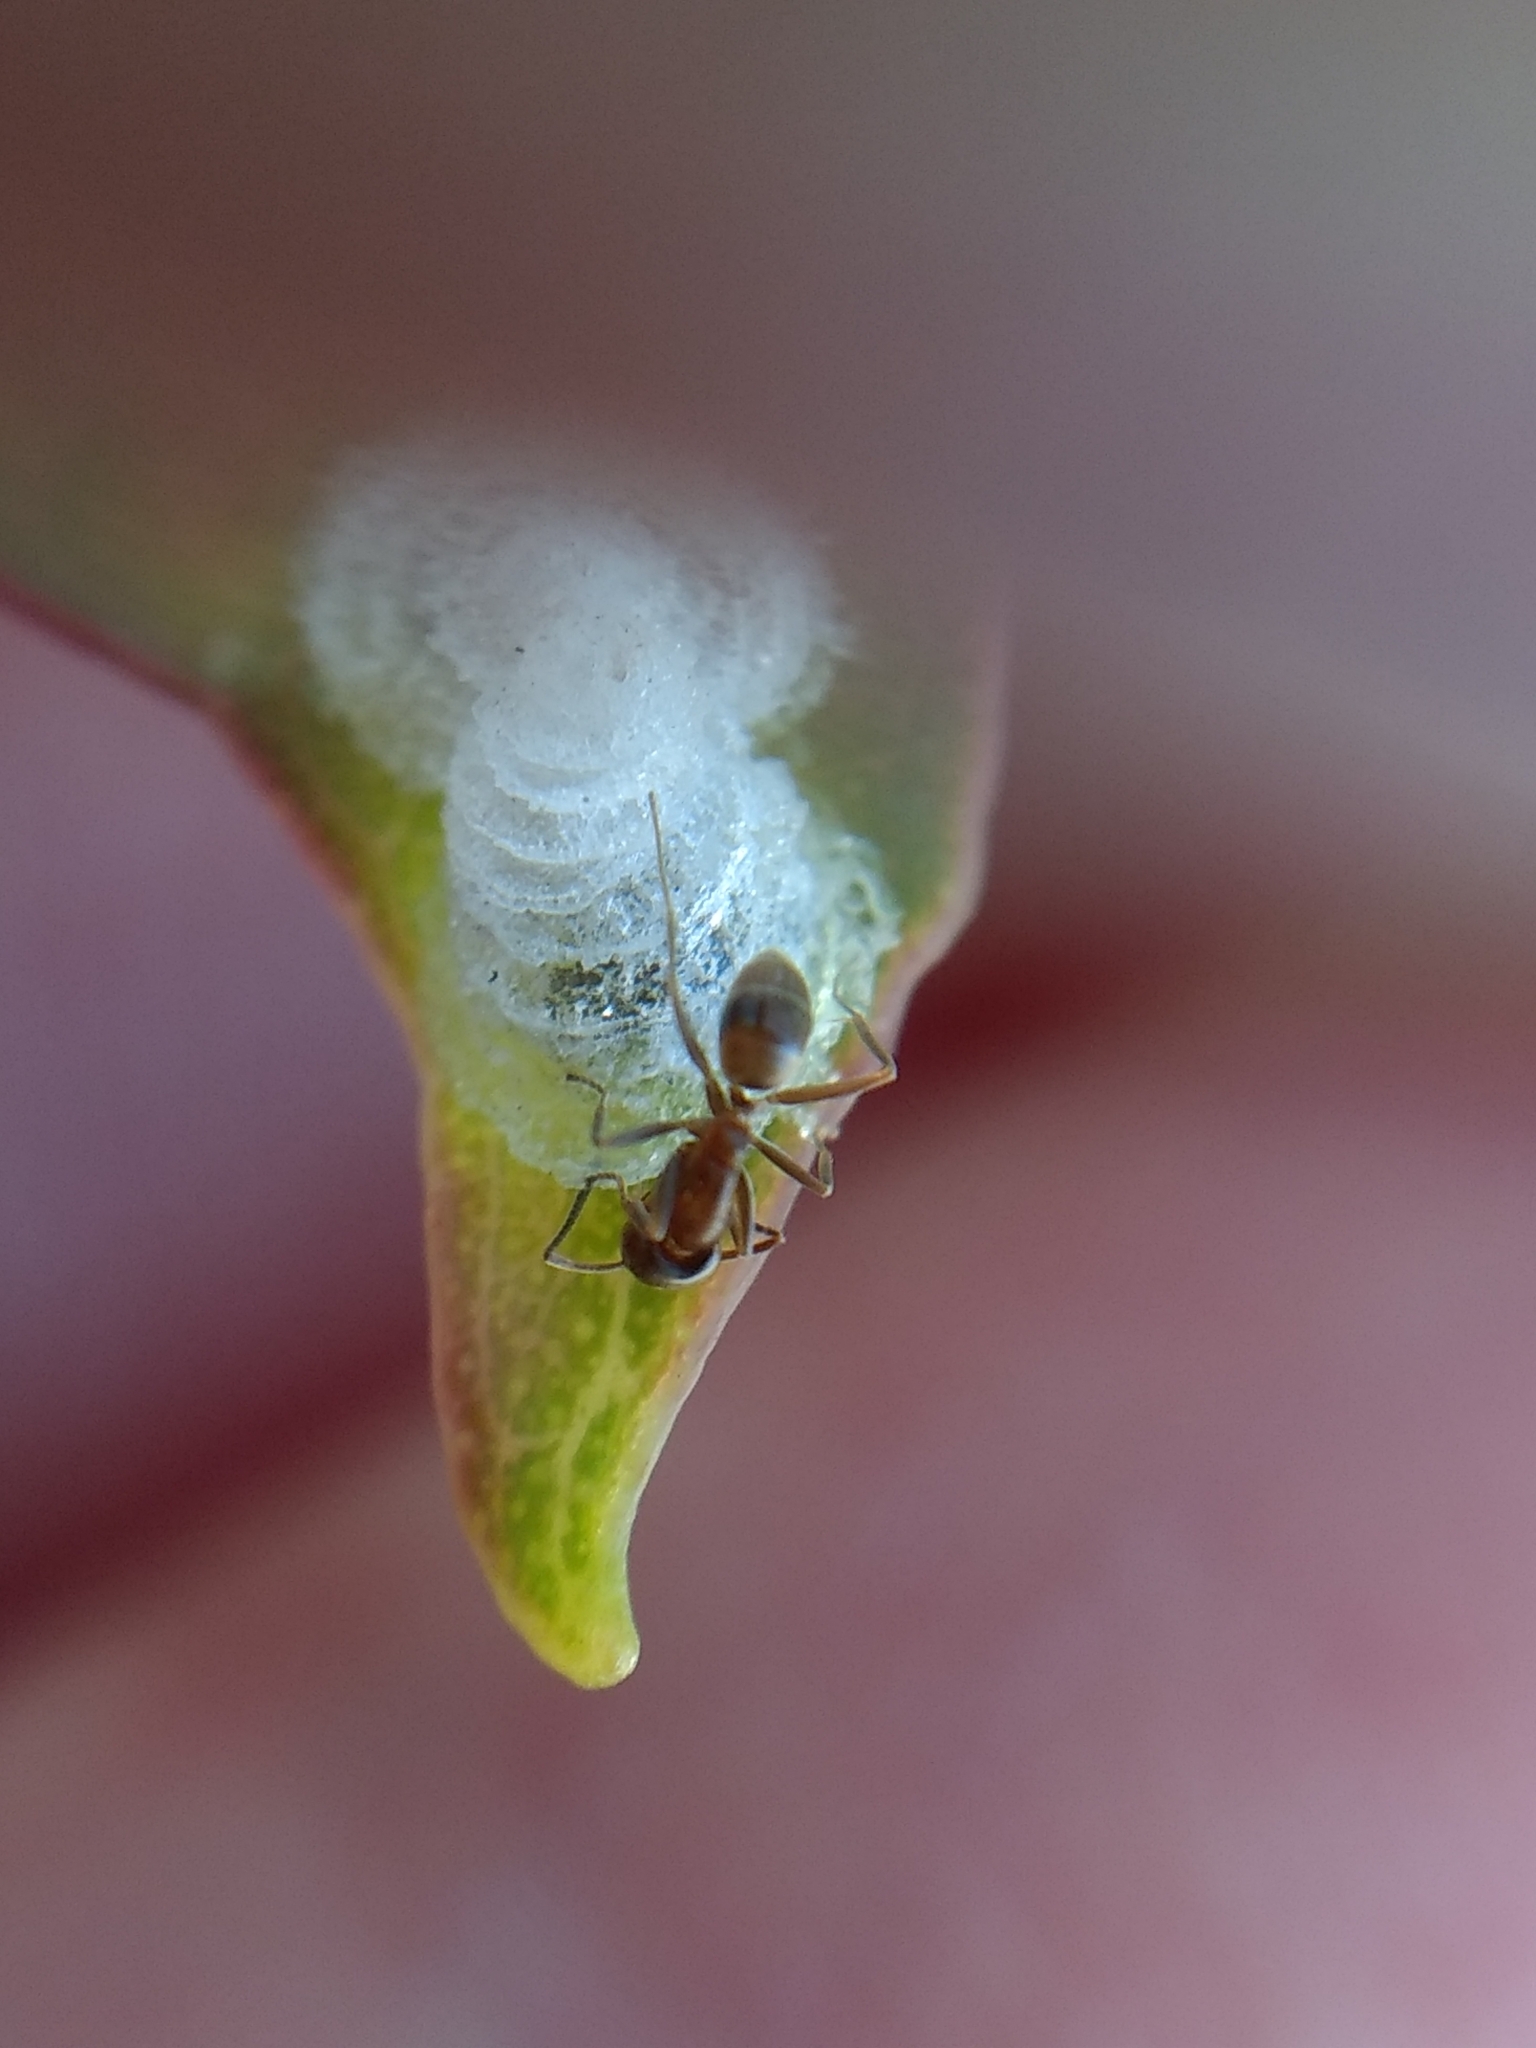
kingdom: Animalia
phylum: Arthropoda
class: Insecta
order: Hymenoptera
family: Formicidae
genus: Linepithema
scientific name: Linepithema humile
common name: Argentine ant
